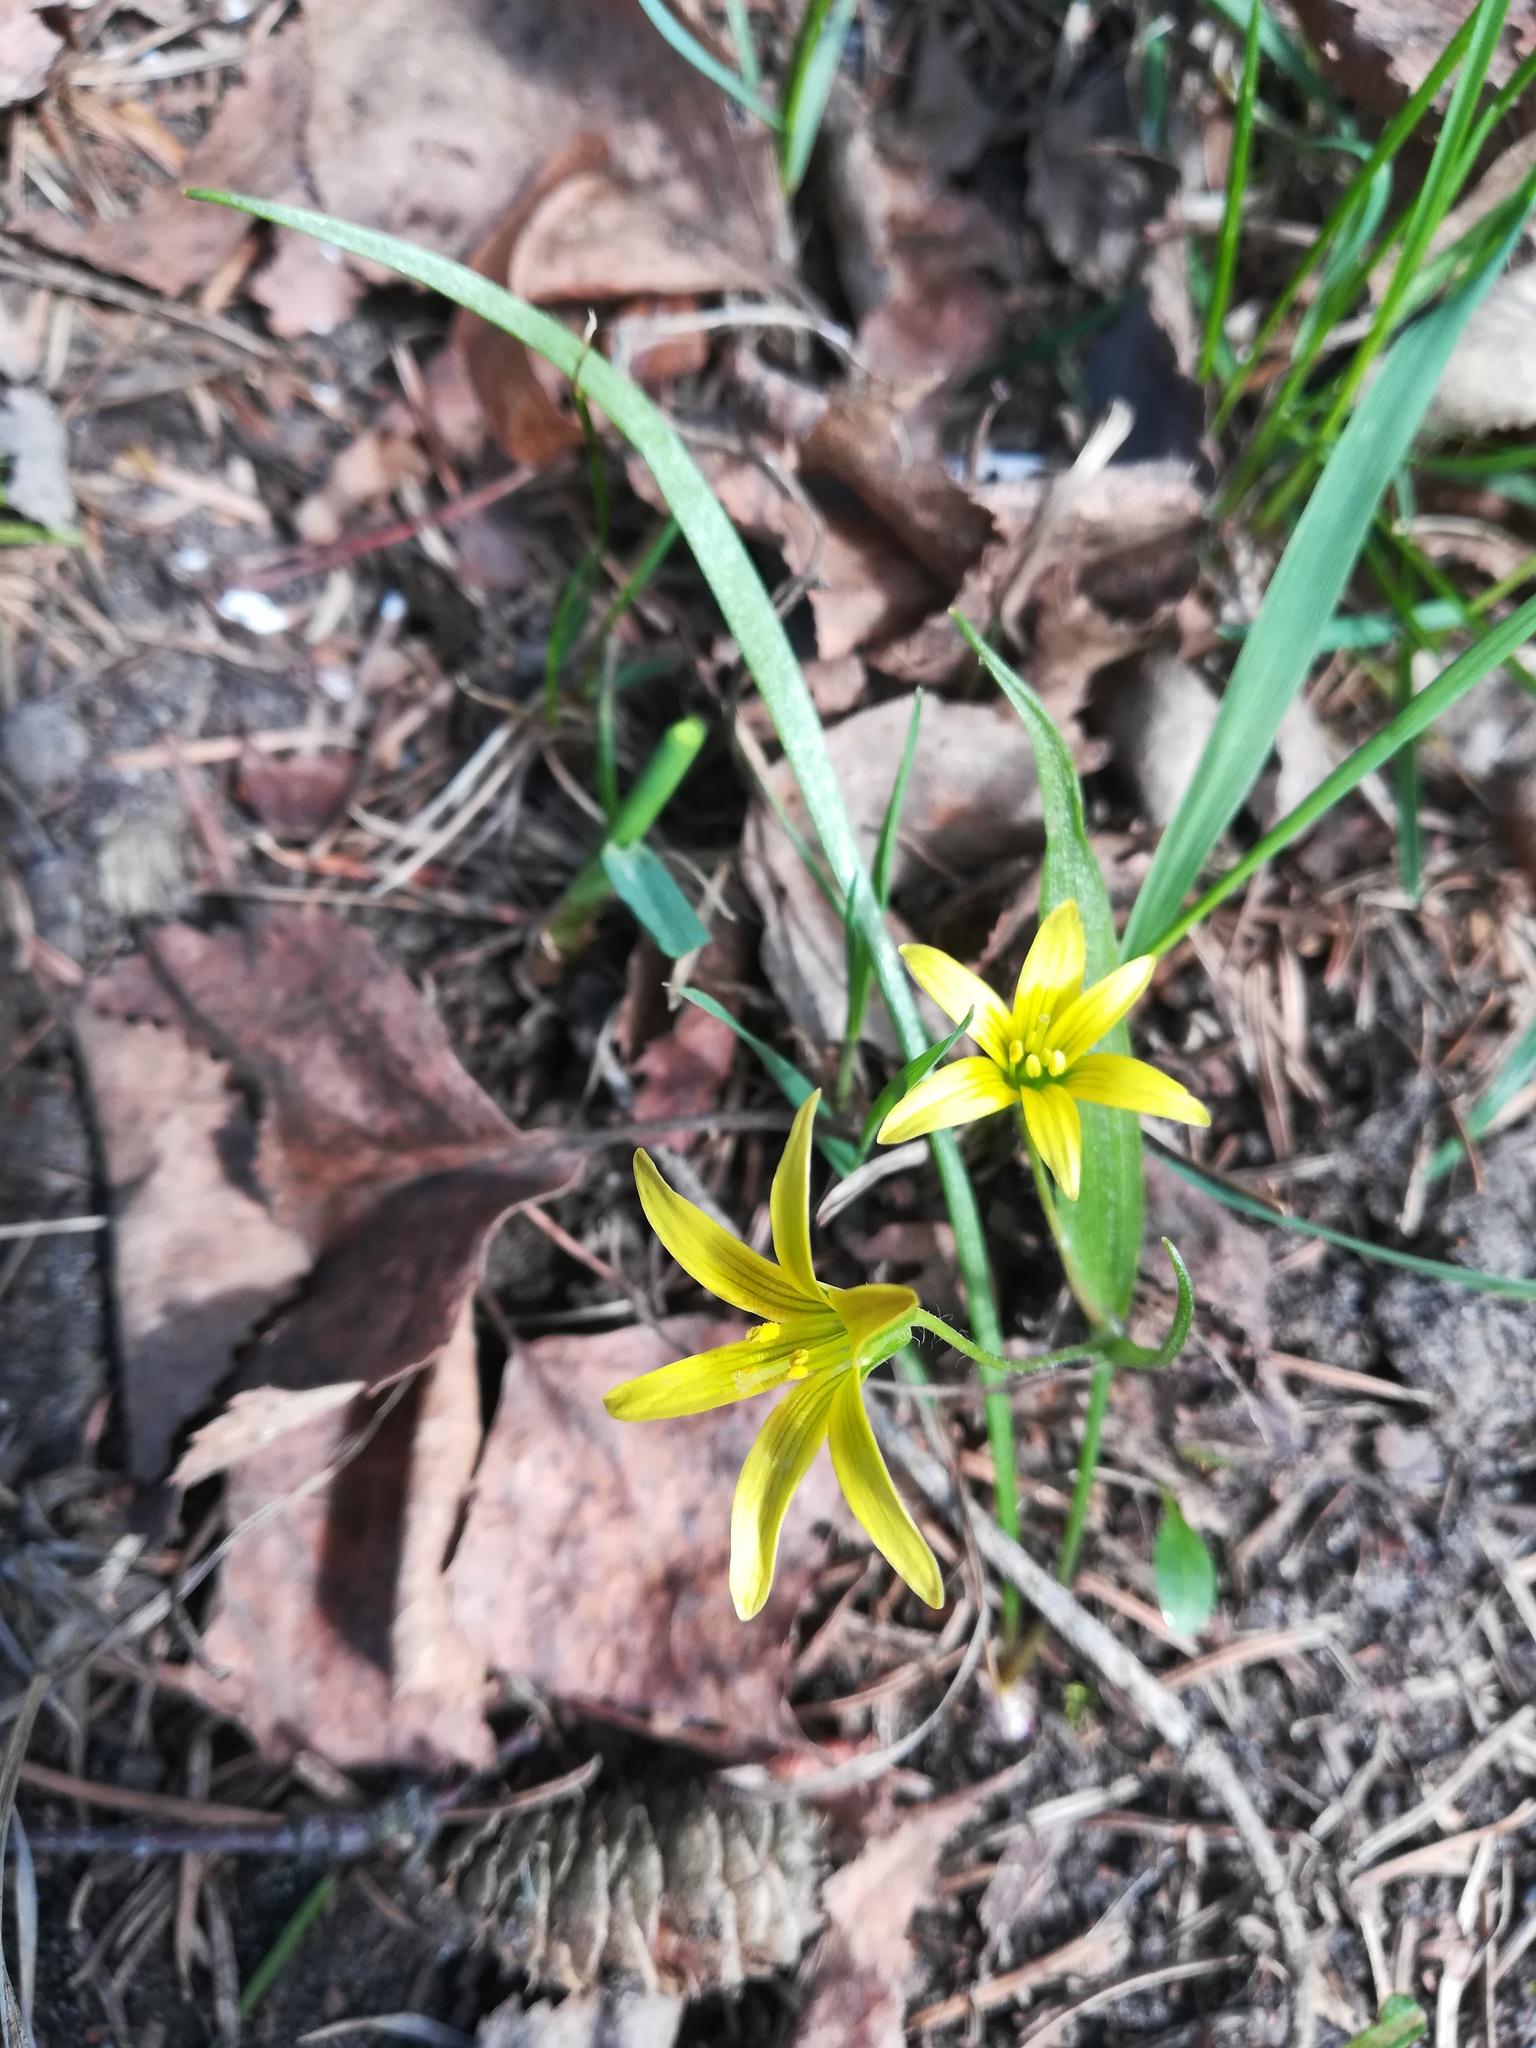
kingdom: Plantae
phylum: Tracheophyta
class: Liliopsida
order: Liliales
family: Liliaceae
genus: Gagea
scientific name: Gagea minima
